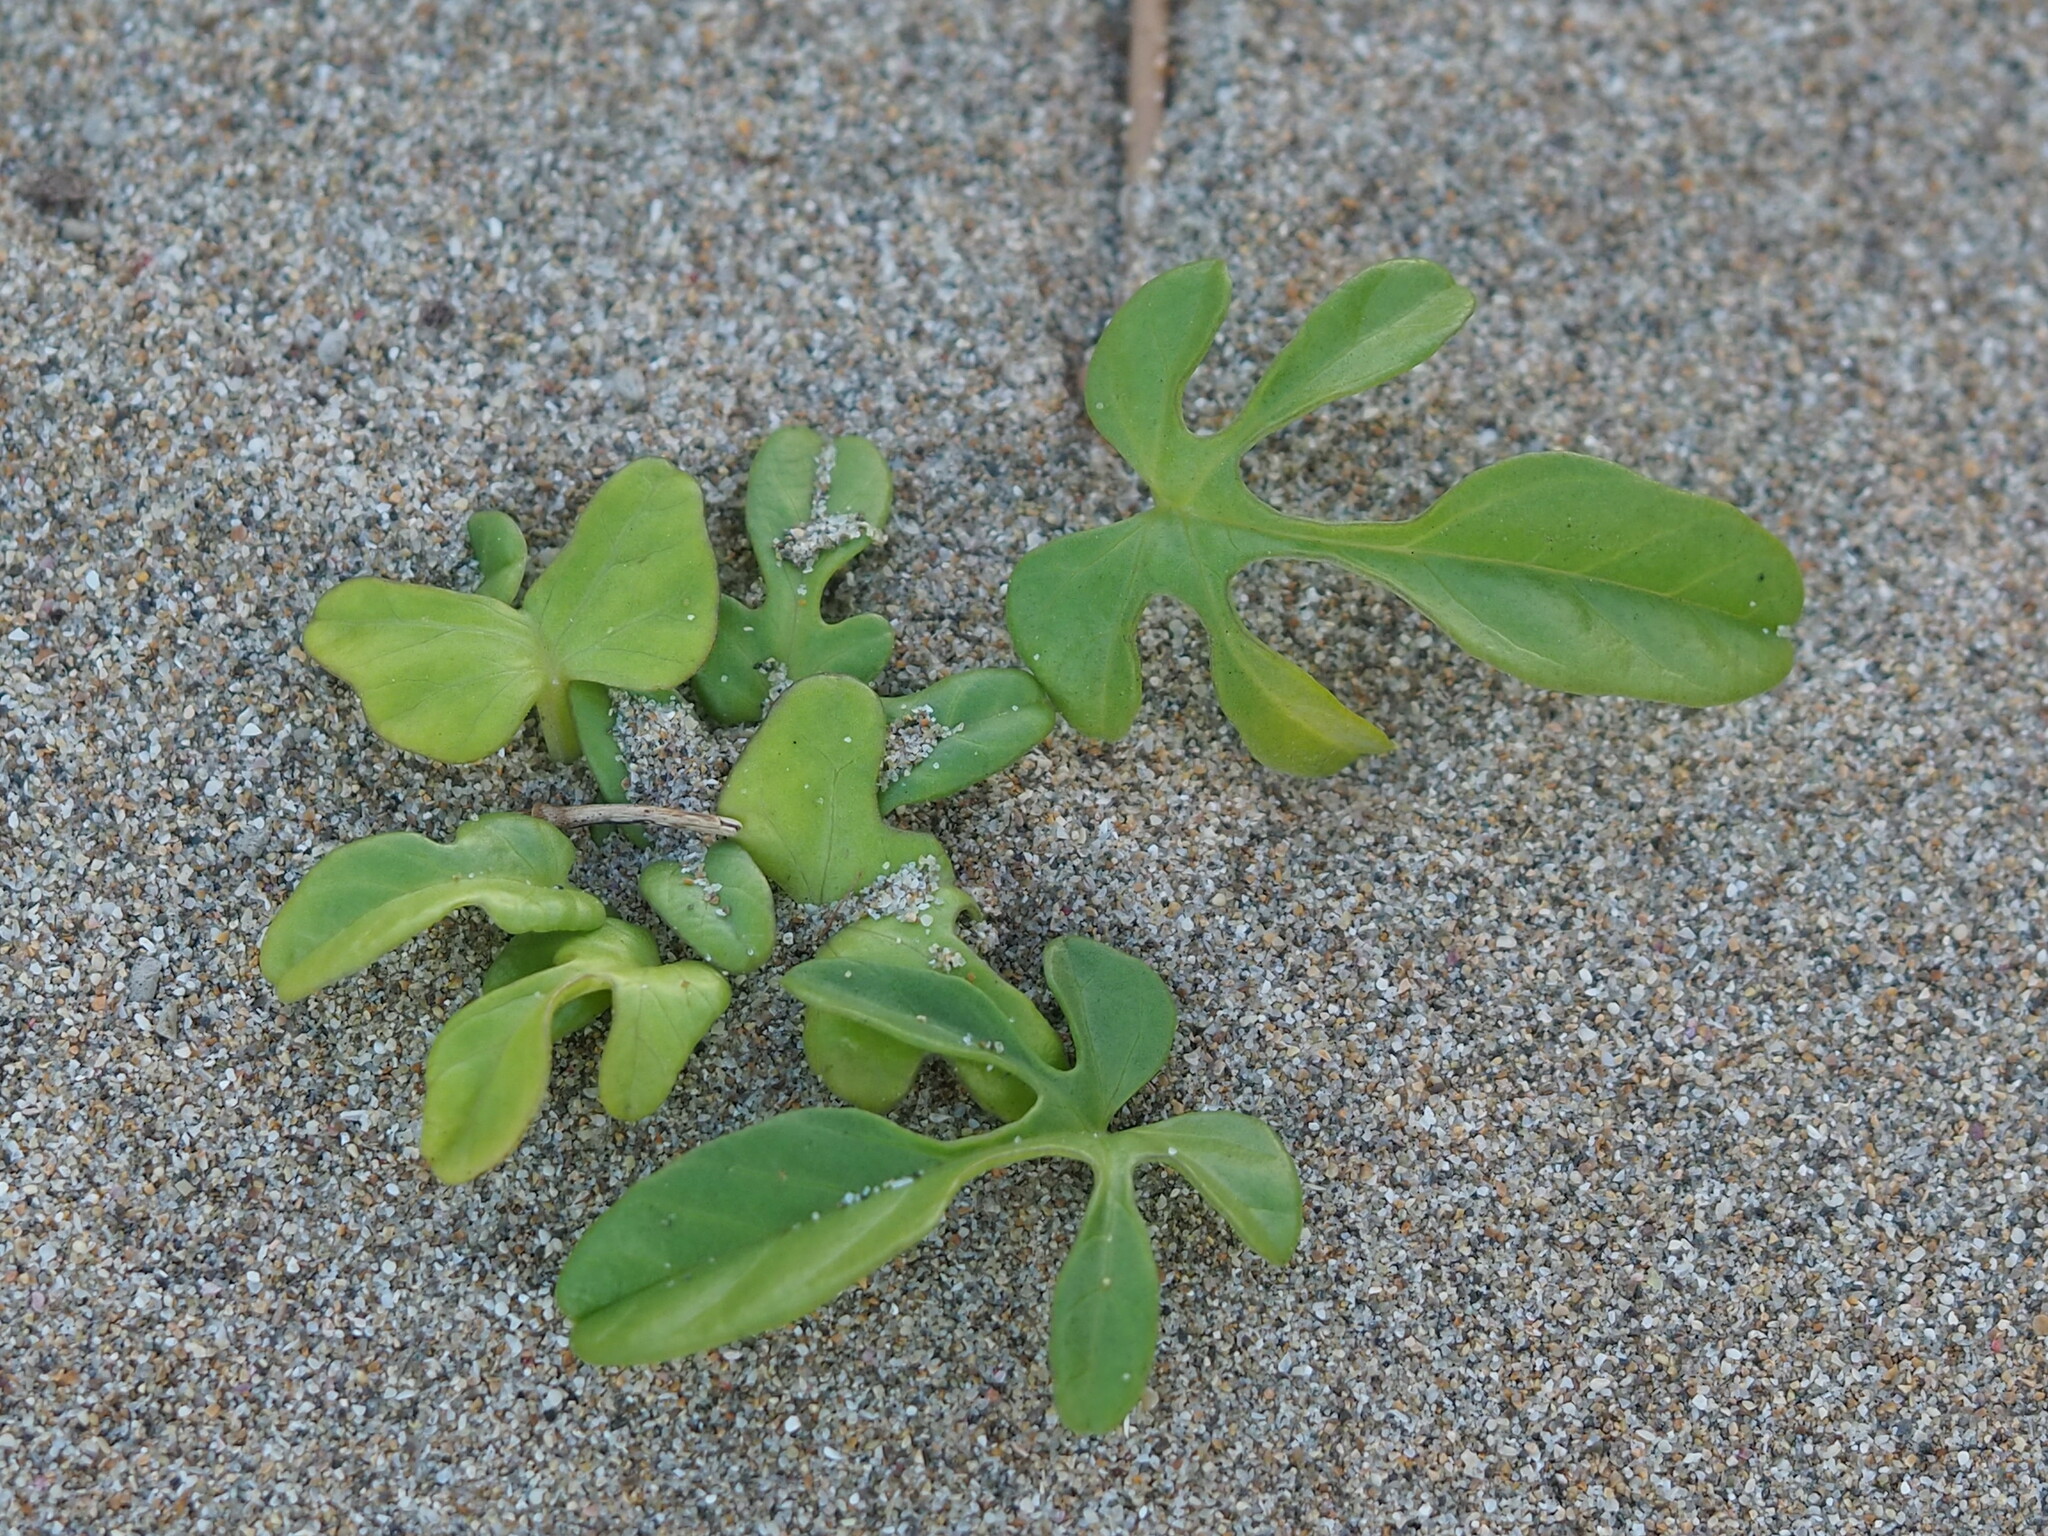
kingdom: Plantae
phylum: Tracheophyta
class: Magnoliopsida
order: Solanales
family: Convolvulaceae
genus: Ipomoea
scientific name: Ipomoea imperati
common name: Fiddle-leaf morning-glory
